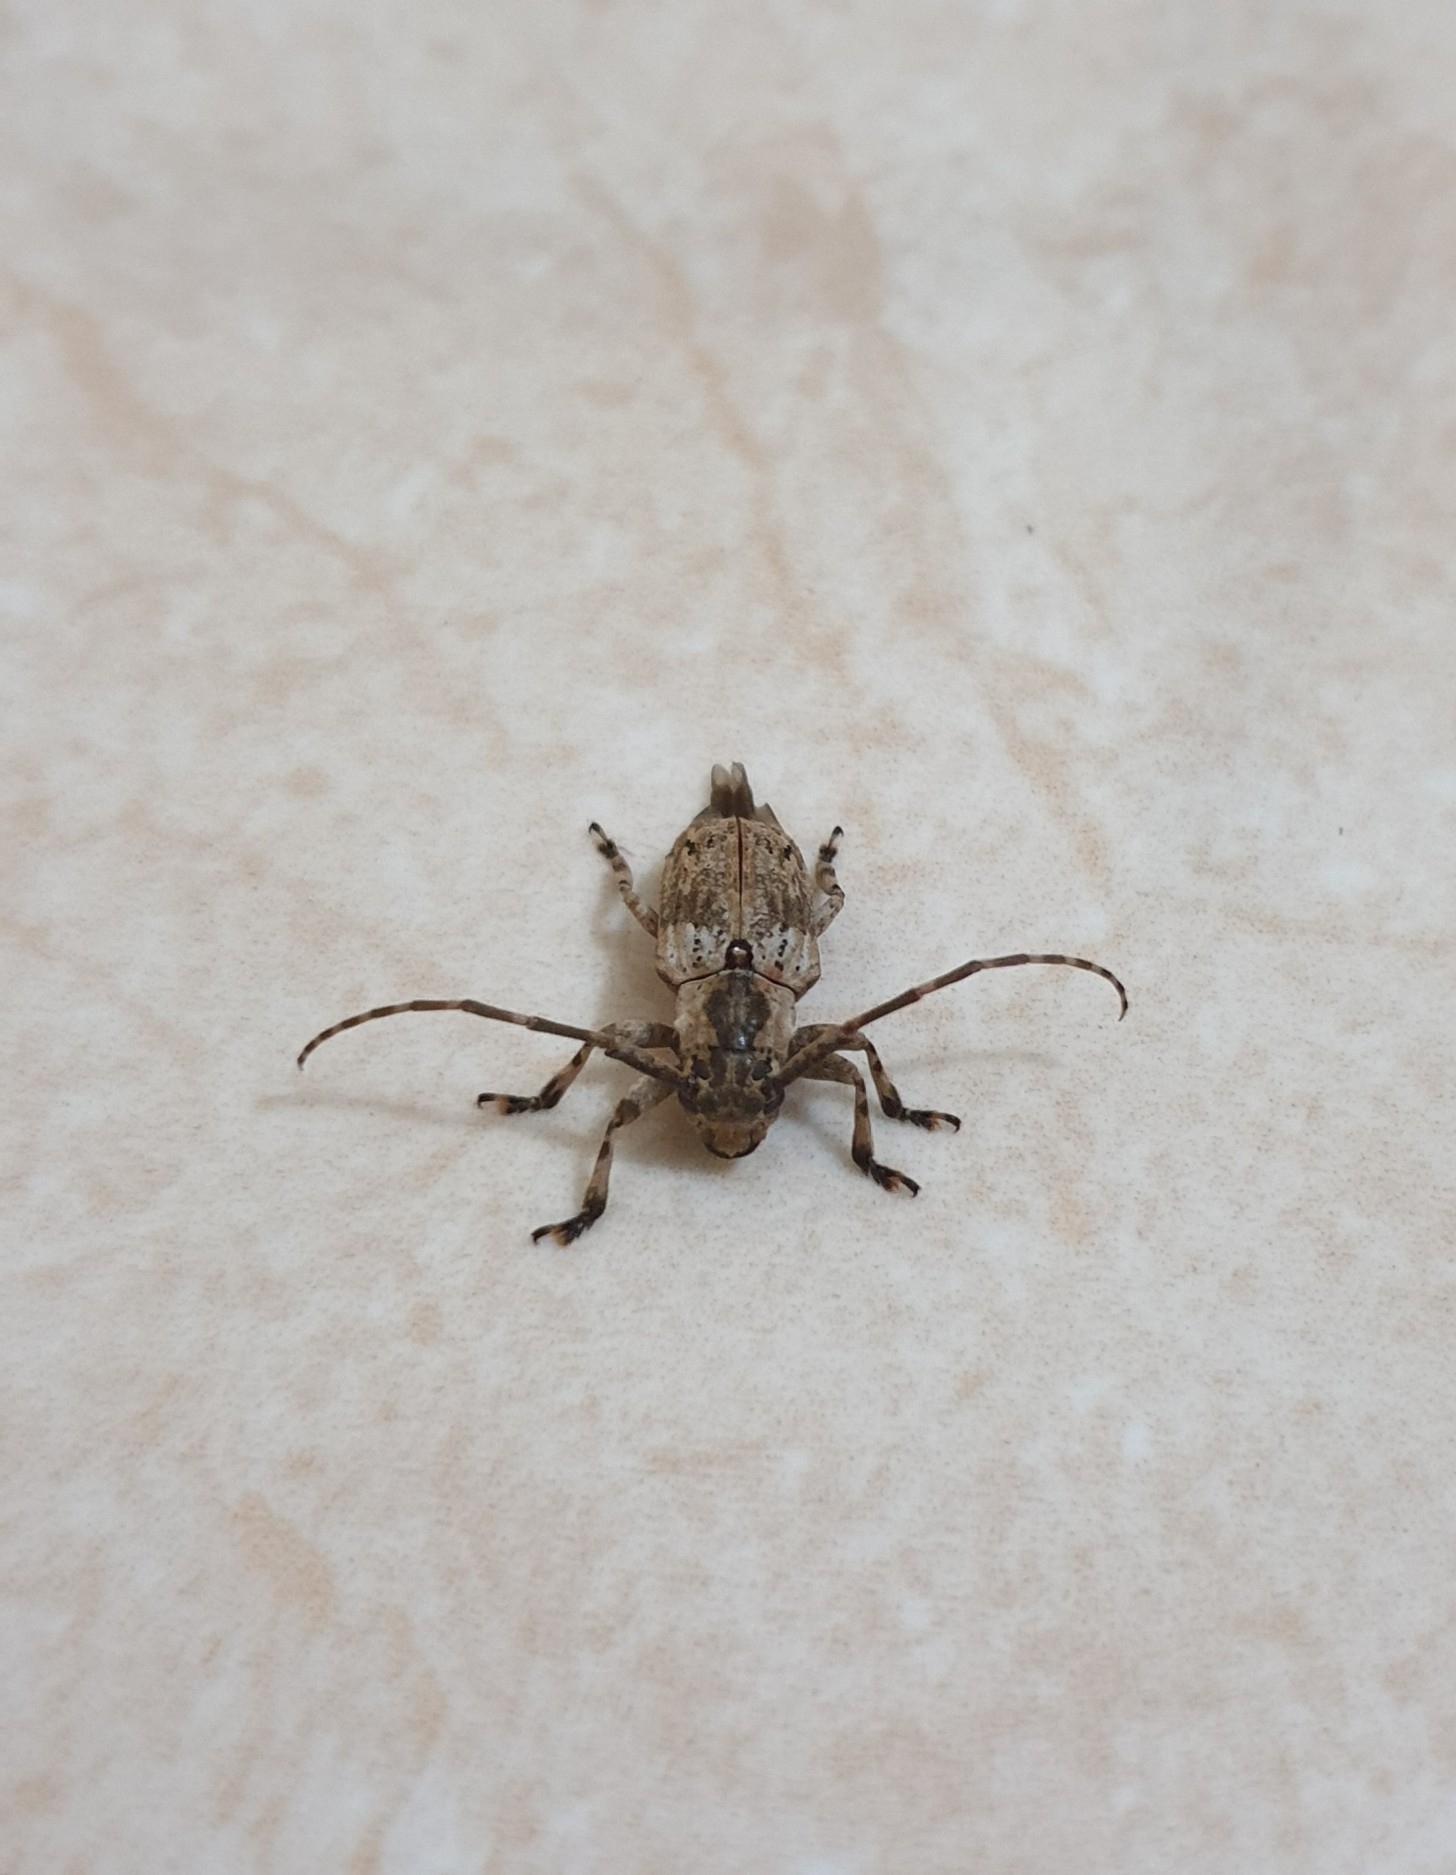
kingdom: Animalia
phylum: Arthropoda
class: Insecta
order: Coleoptera
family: Cerambycidae
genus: Coptops
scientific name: Coptops aedificator
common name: Long-horned beetle
